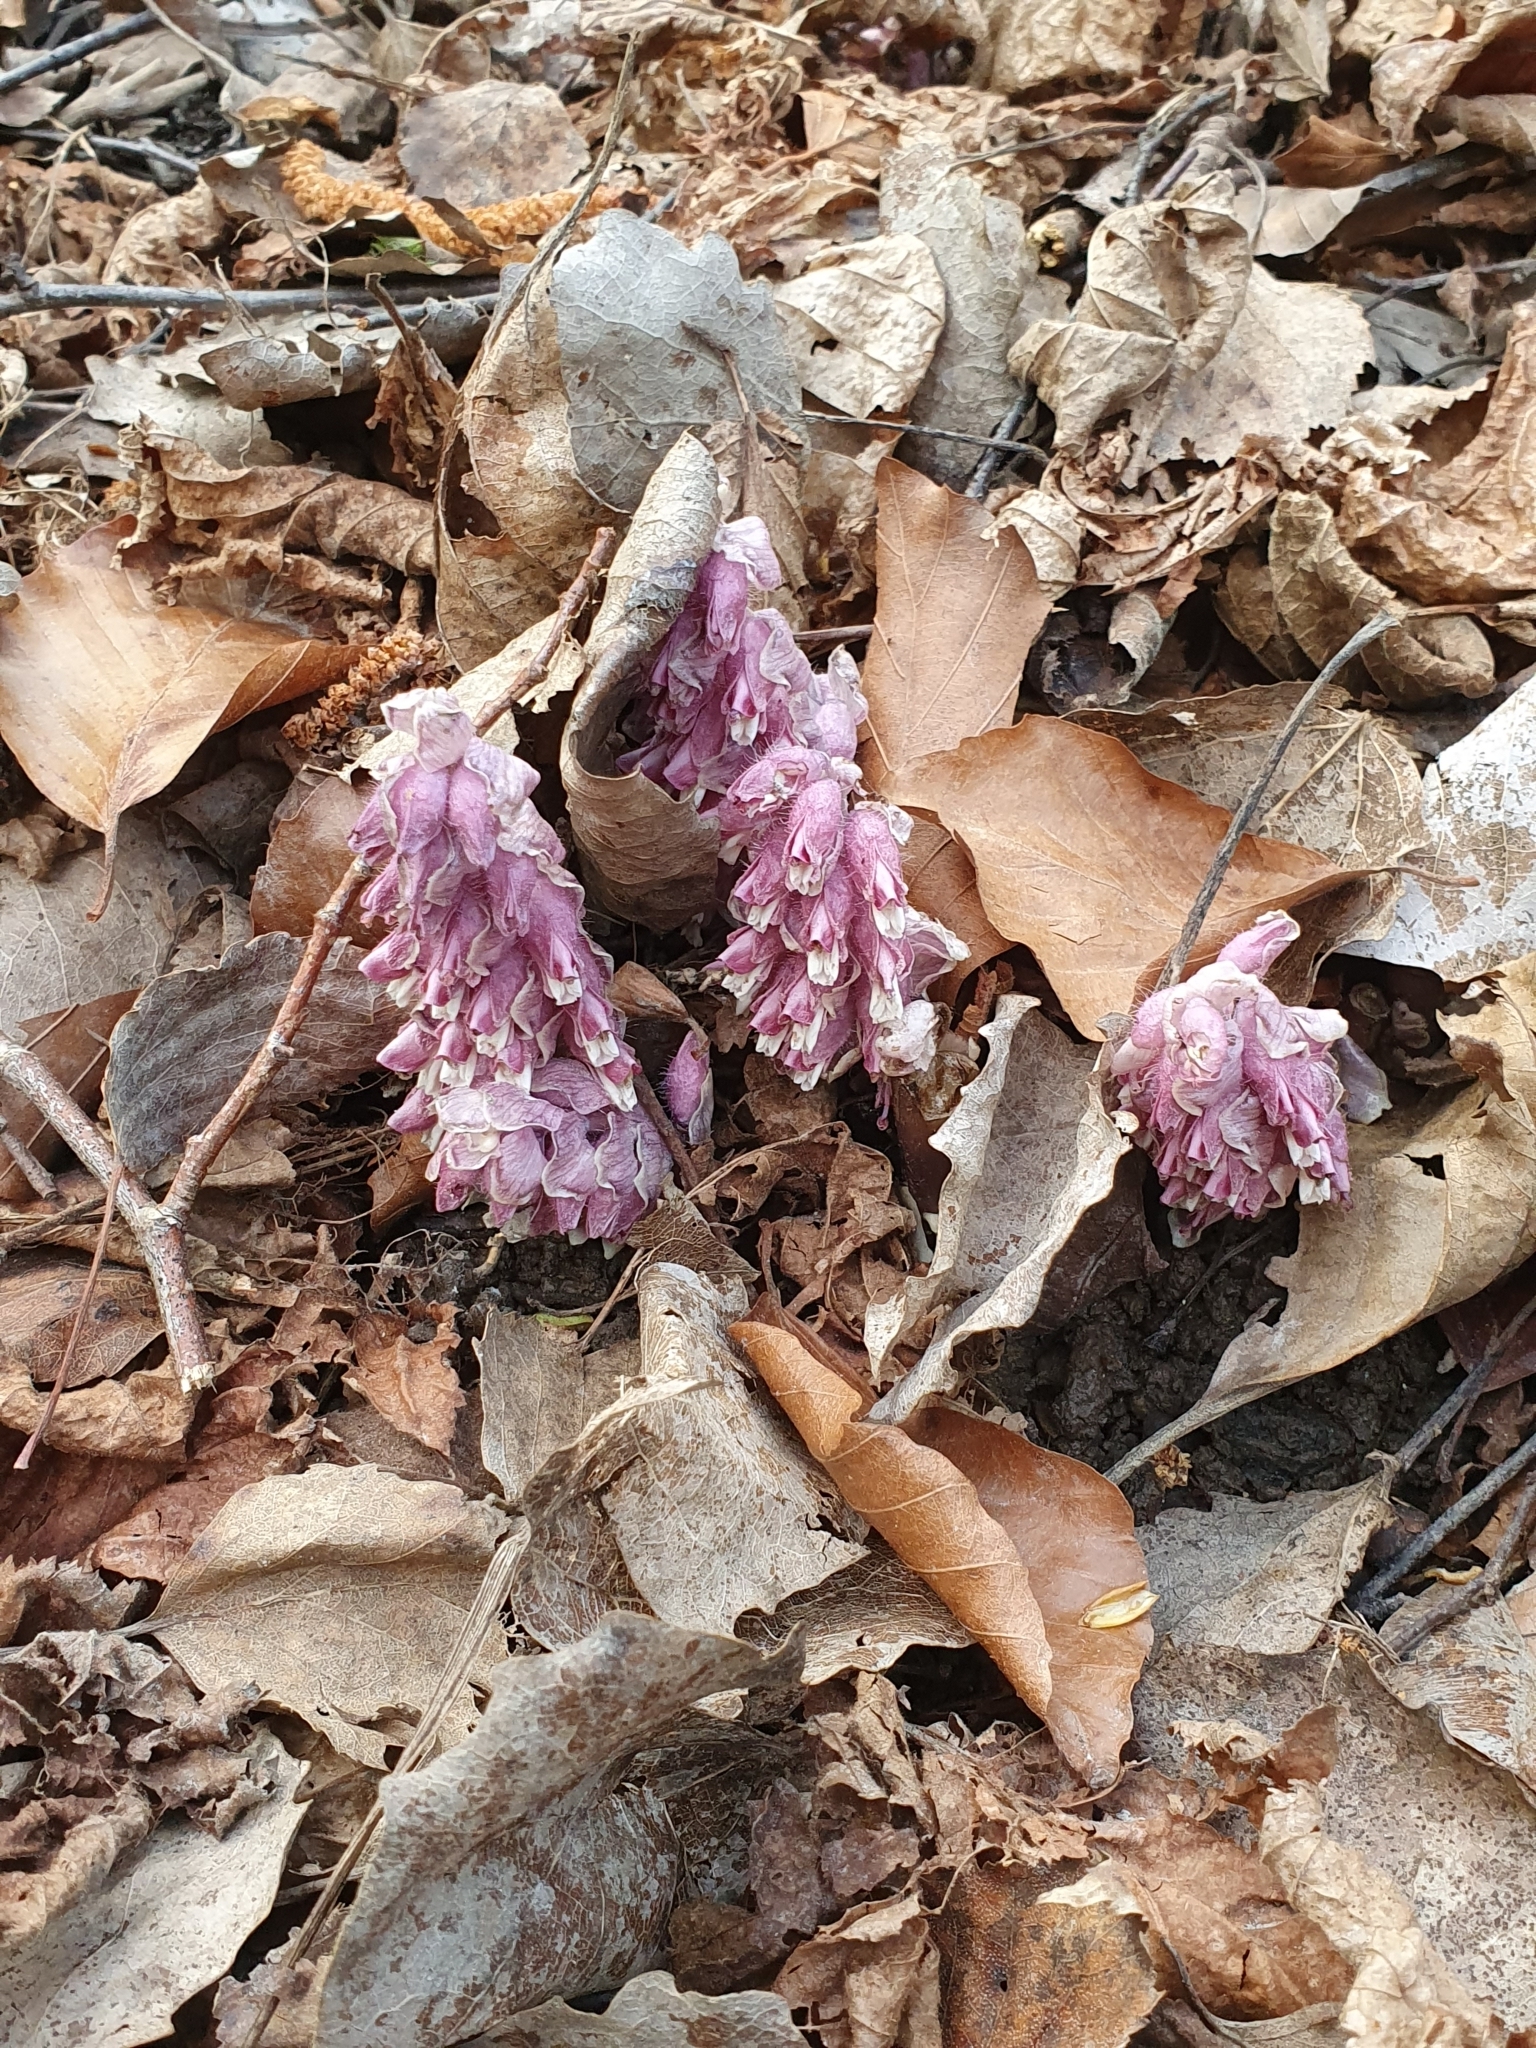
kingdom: Plantae
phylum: Tracheophyta
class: Magnoliopsida
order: Lamiales
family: Orobanchaceae
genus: Lathraea
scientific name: Lathraea squamaria
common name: Toothwort
